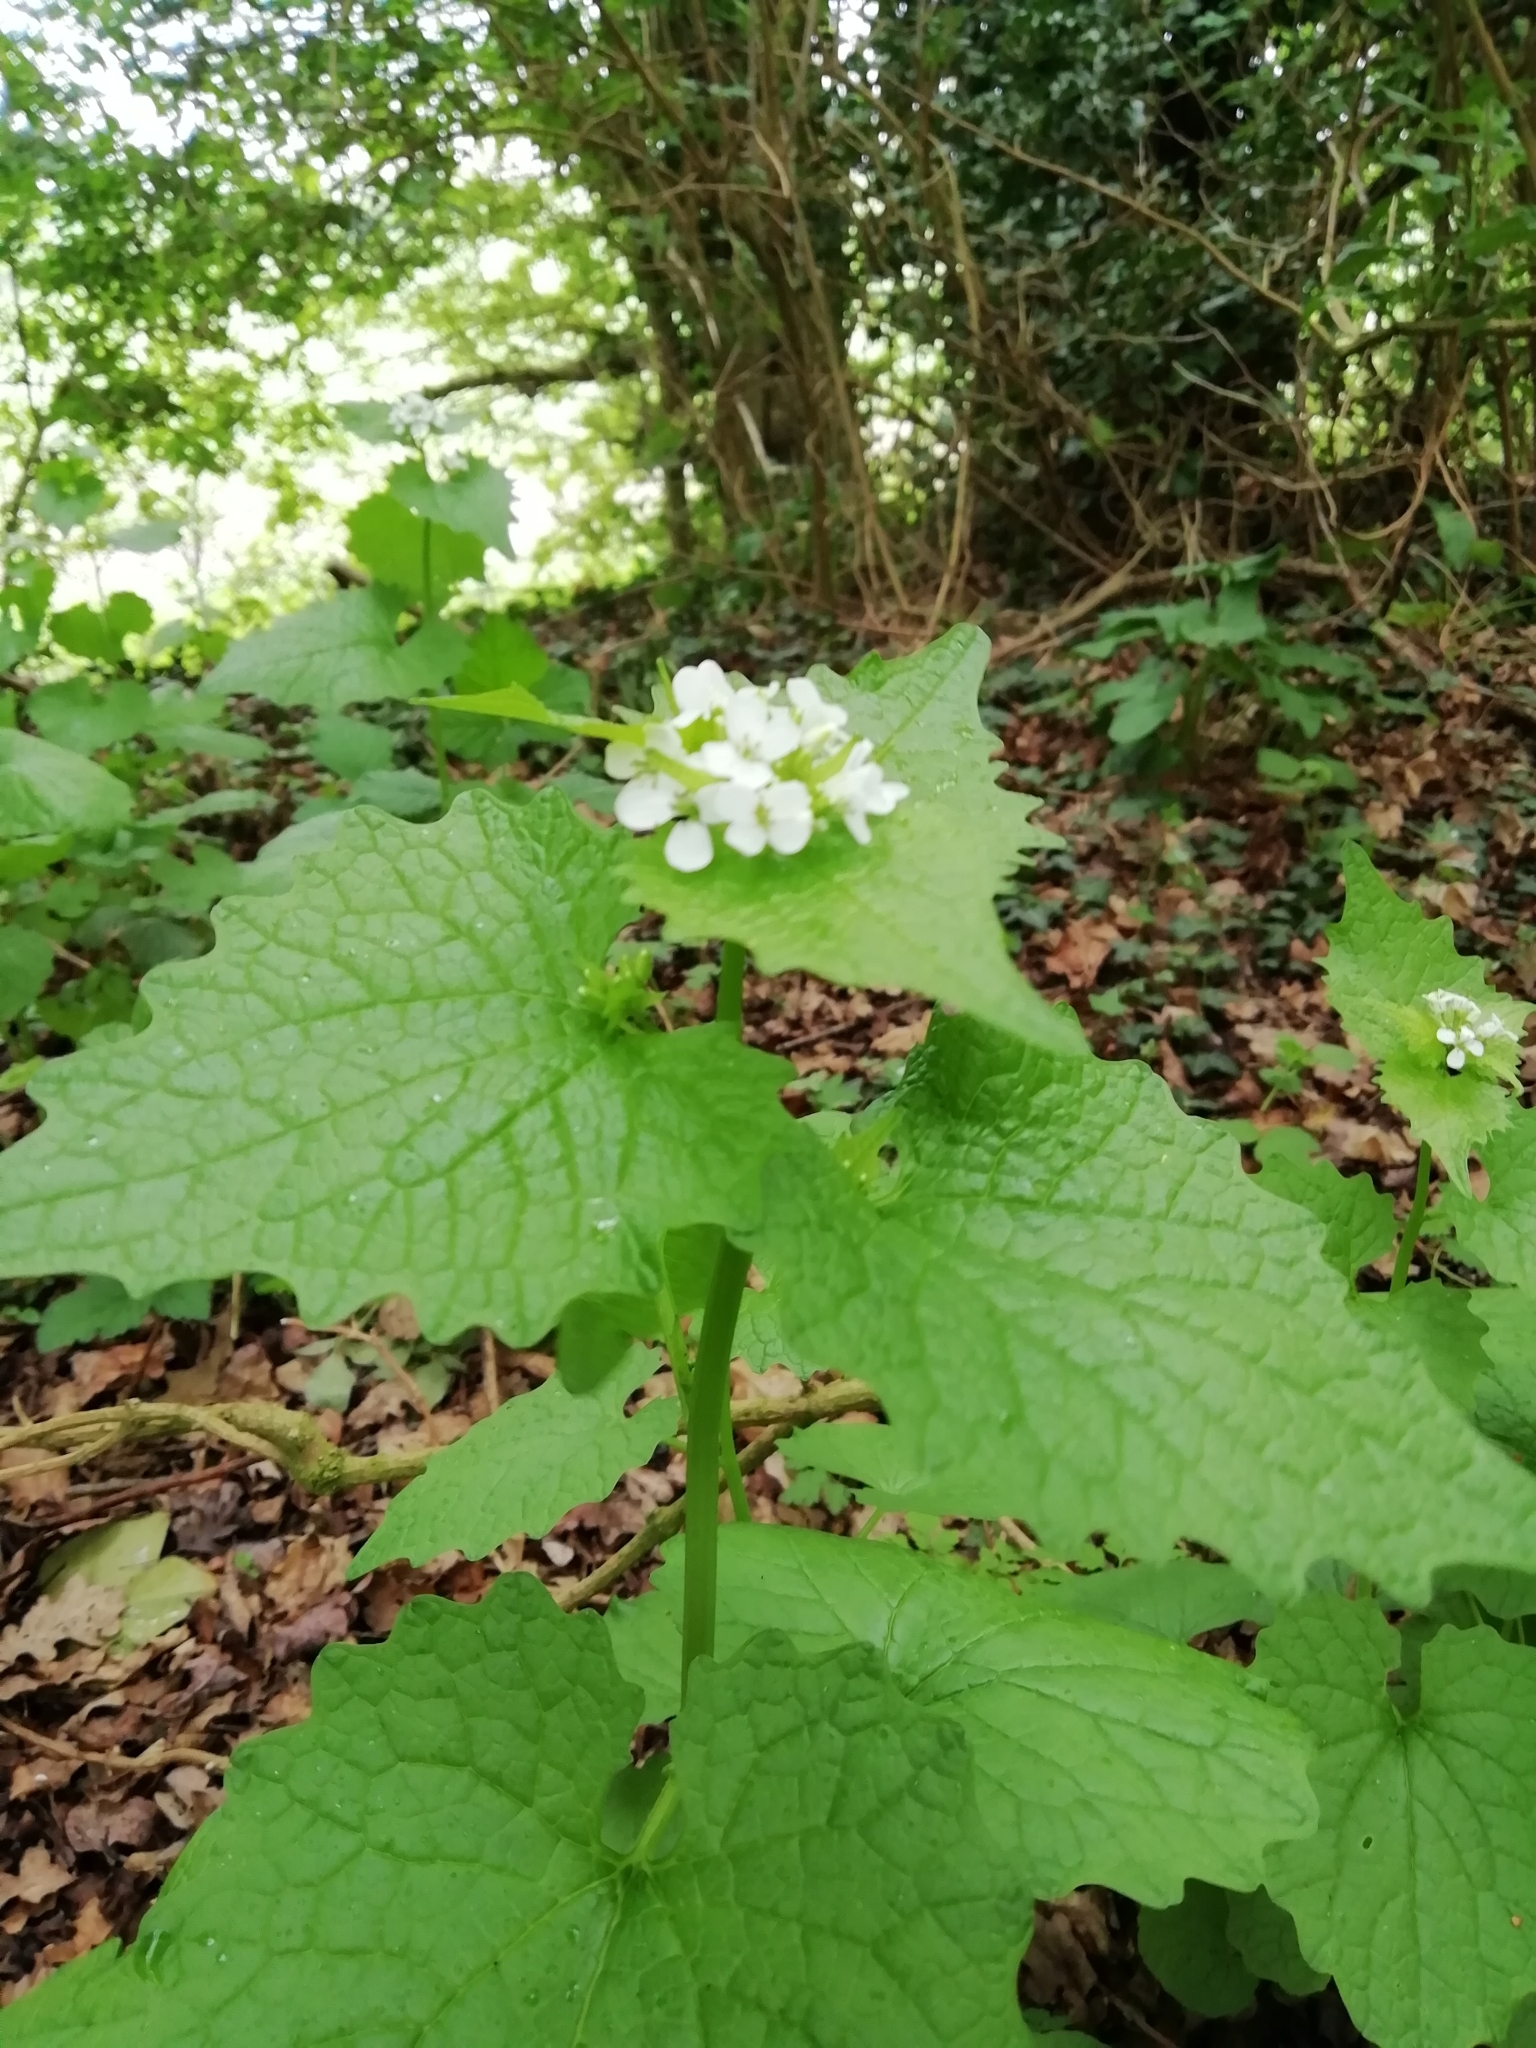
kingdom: Plantae
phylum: Tracheophyta
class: Magnoliopsida
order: Brassicales
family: Brassicaceae
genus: Alliaria
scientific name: Alliaria petiolata
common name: Garlic mustard
